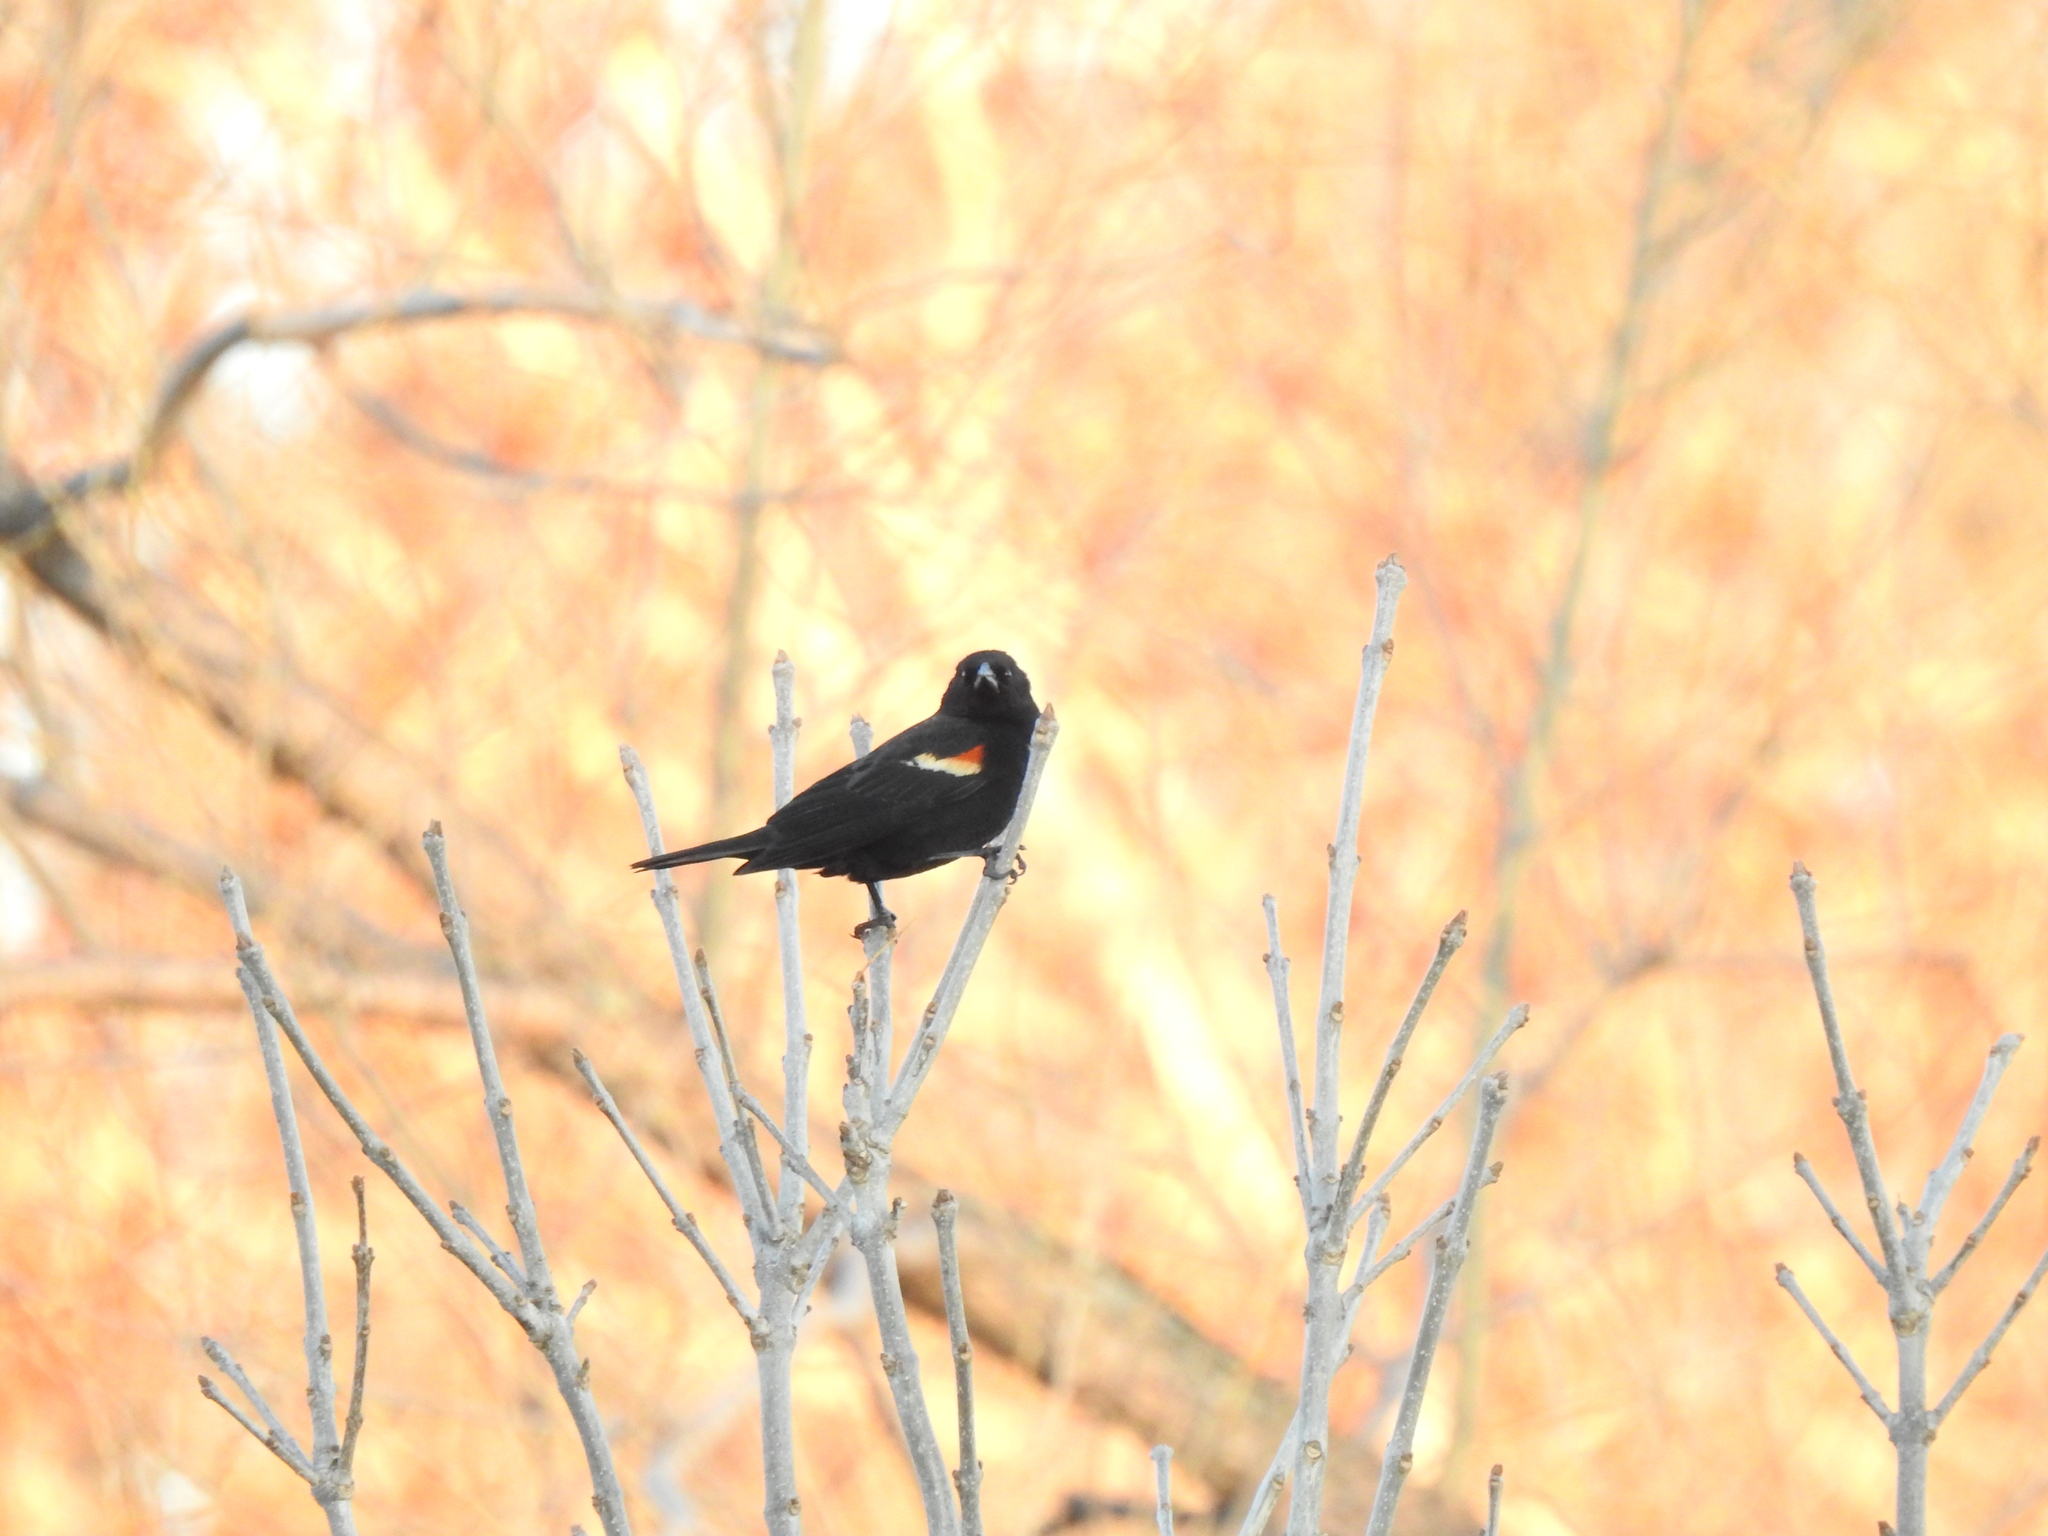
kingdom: Animalia
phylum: Chordata
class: Aves
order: Passeriformes
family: Icteridae
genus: Agelaius
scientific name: Agelaius phoeniceus
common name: Red-winged blackbird
